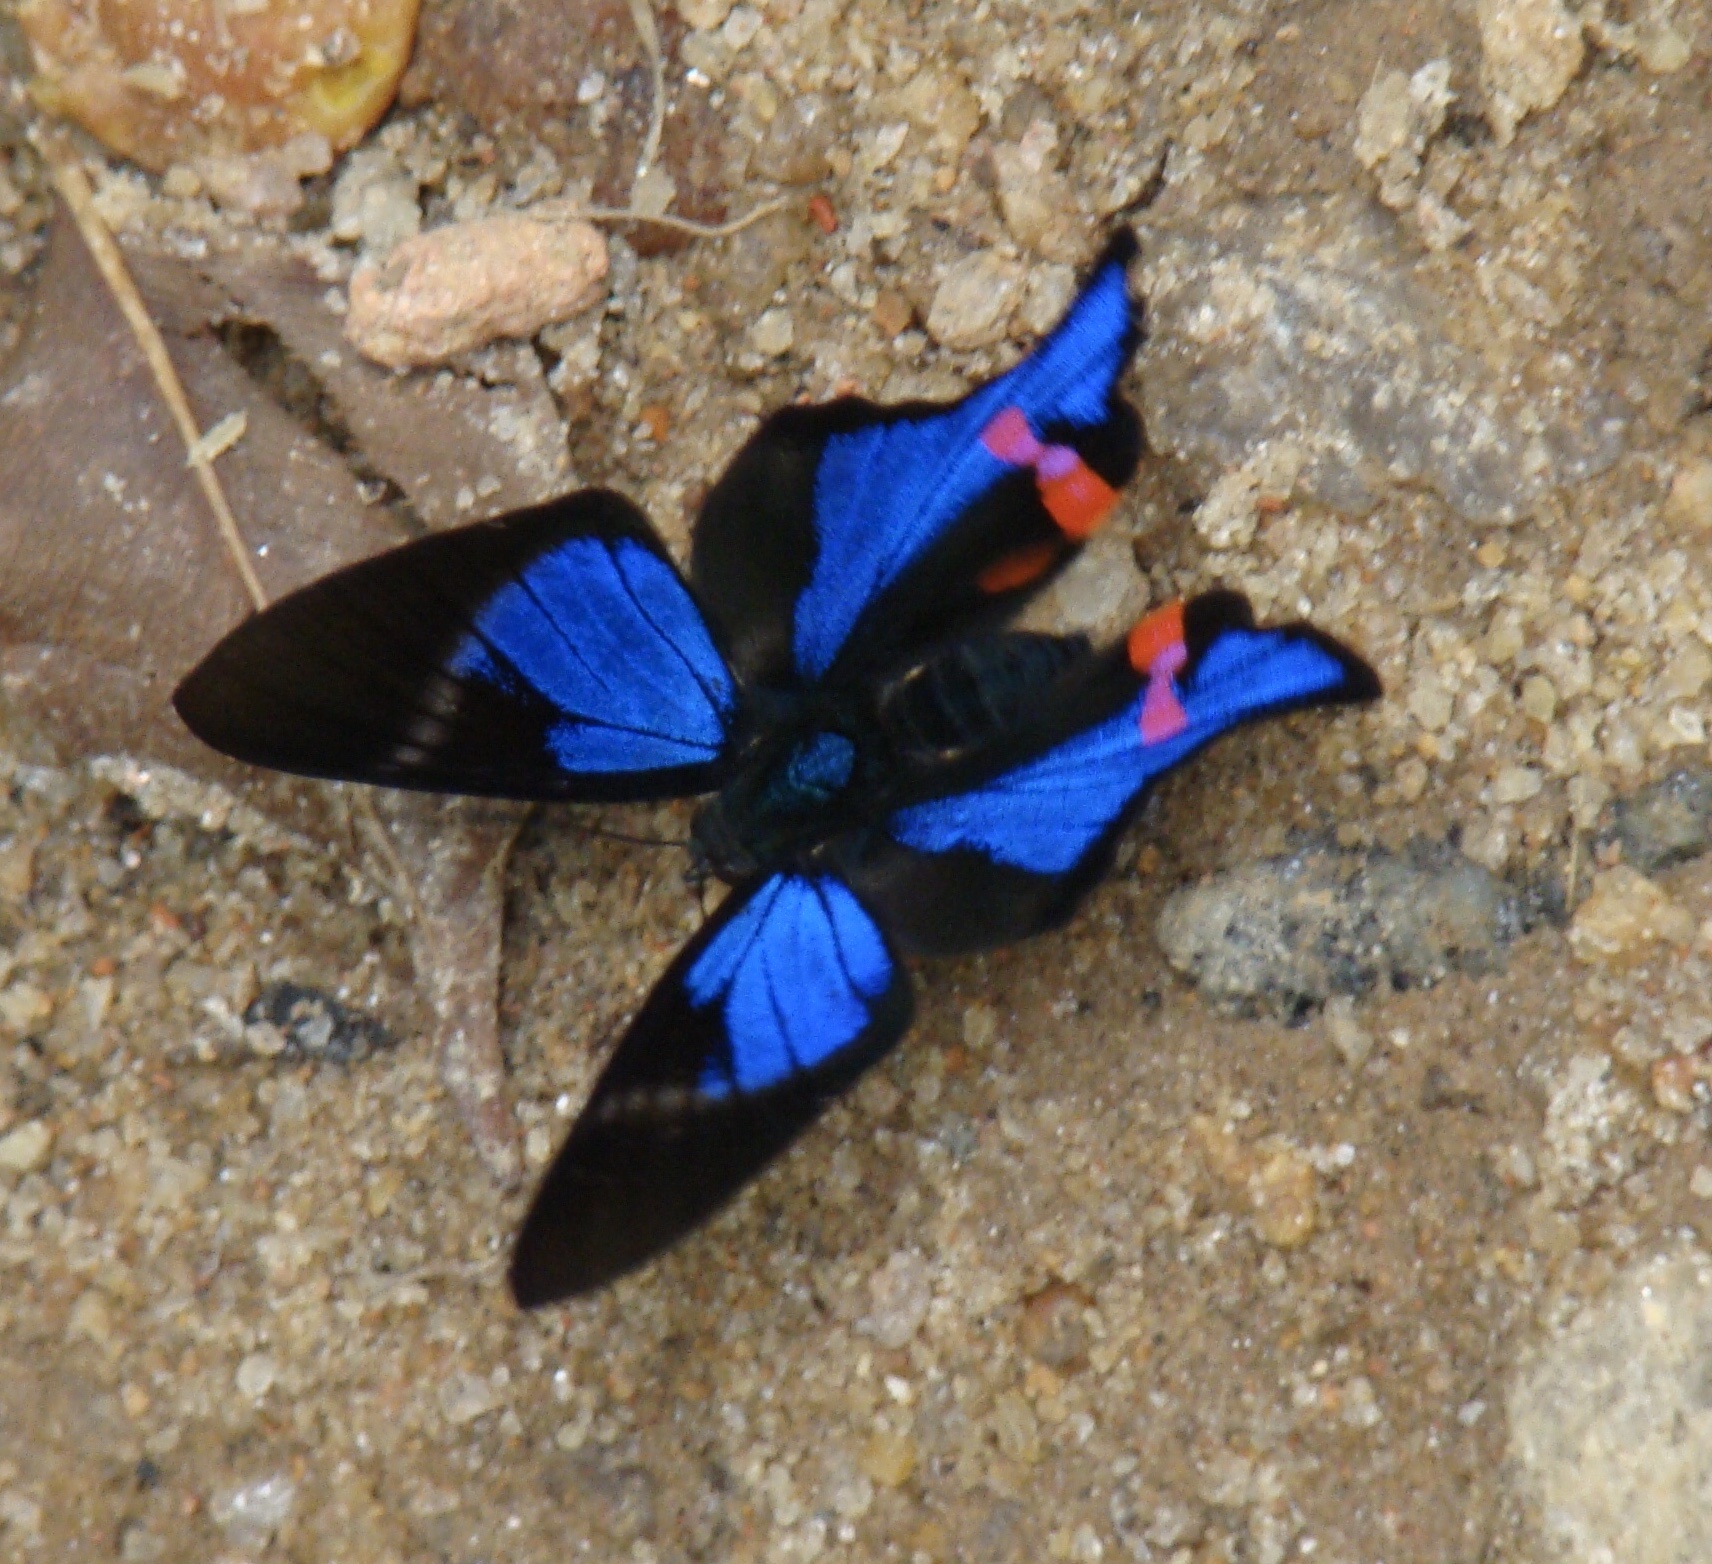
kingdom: Animalia
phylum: Arthropoda
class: Insecta
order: Lepidoptera
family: Riodinidae
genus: Rhetus
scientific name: Rhetus periander
